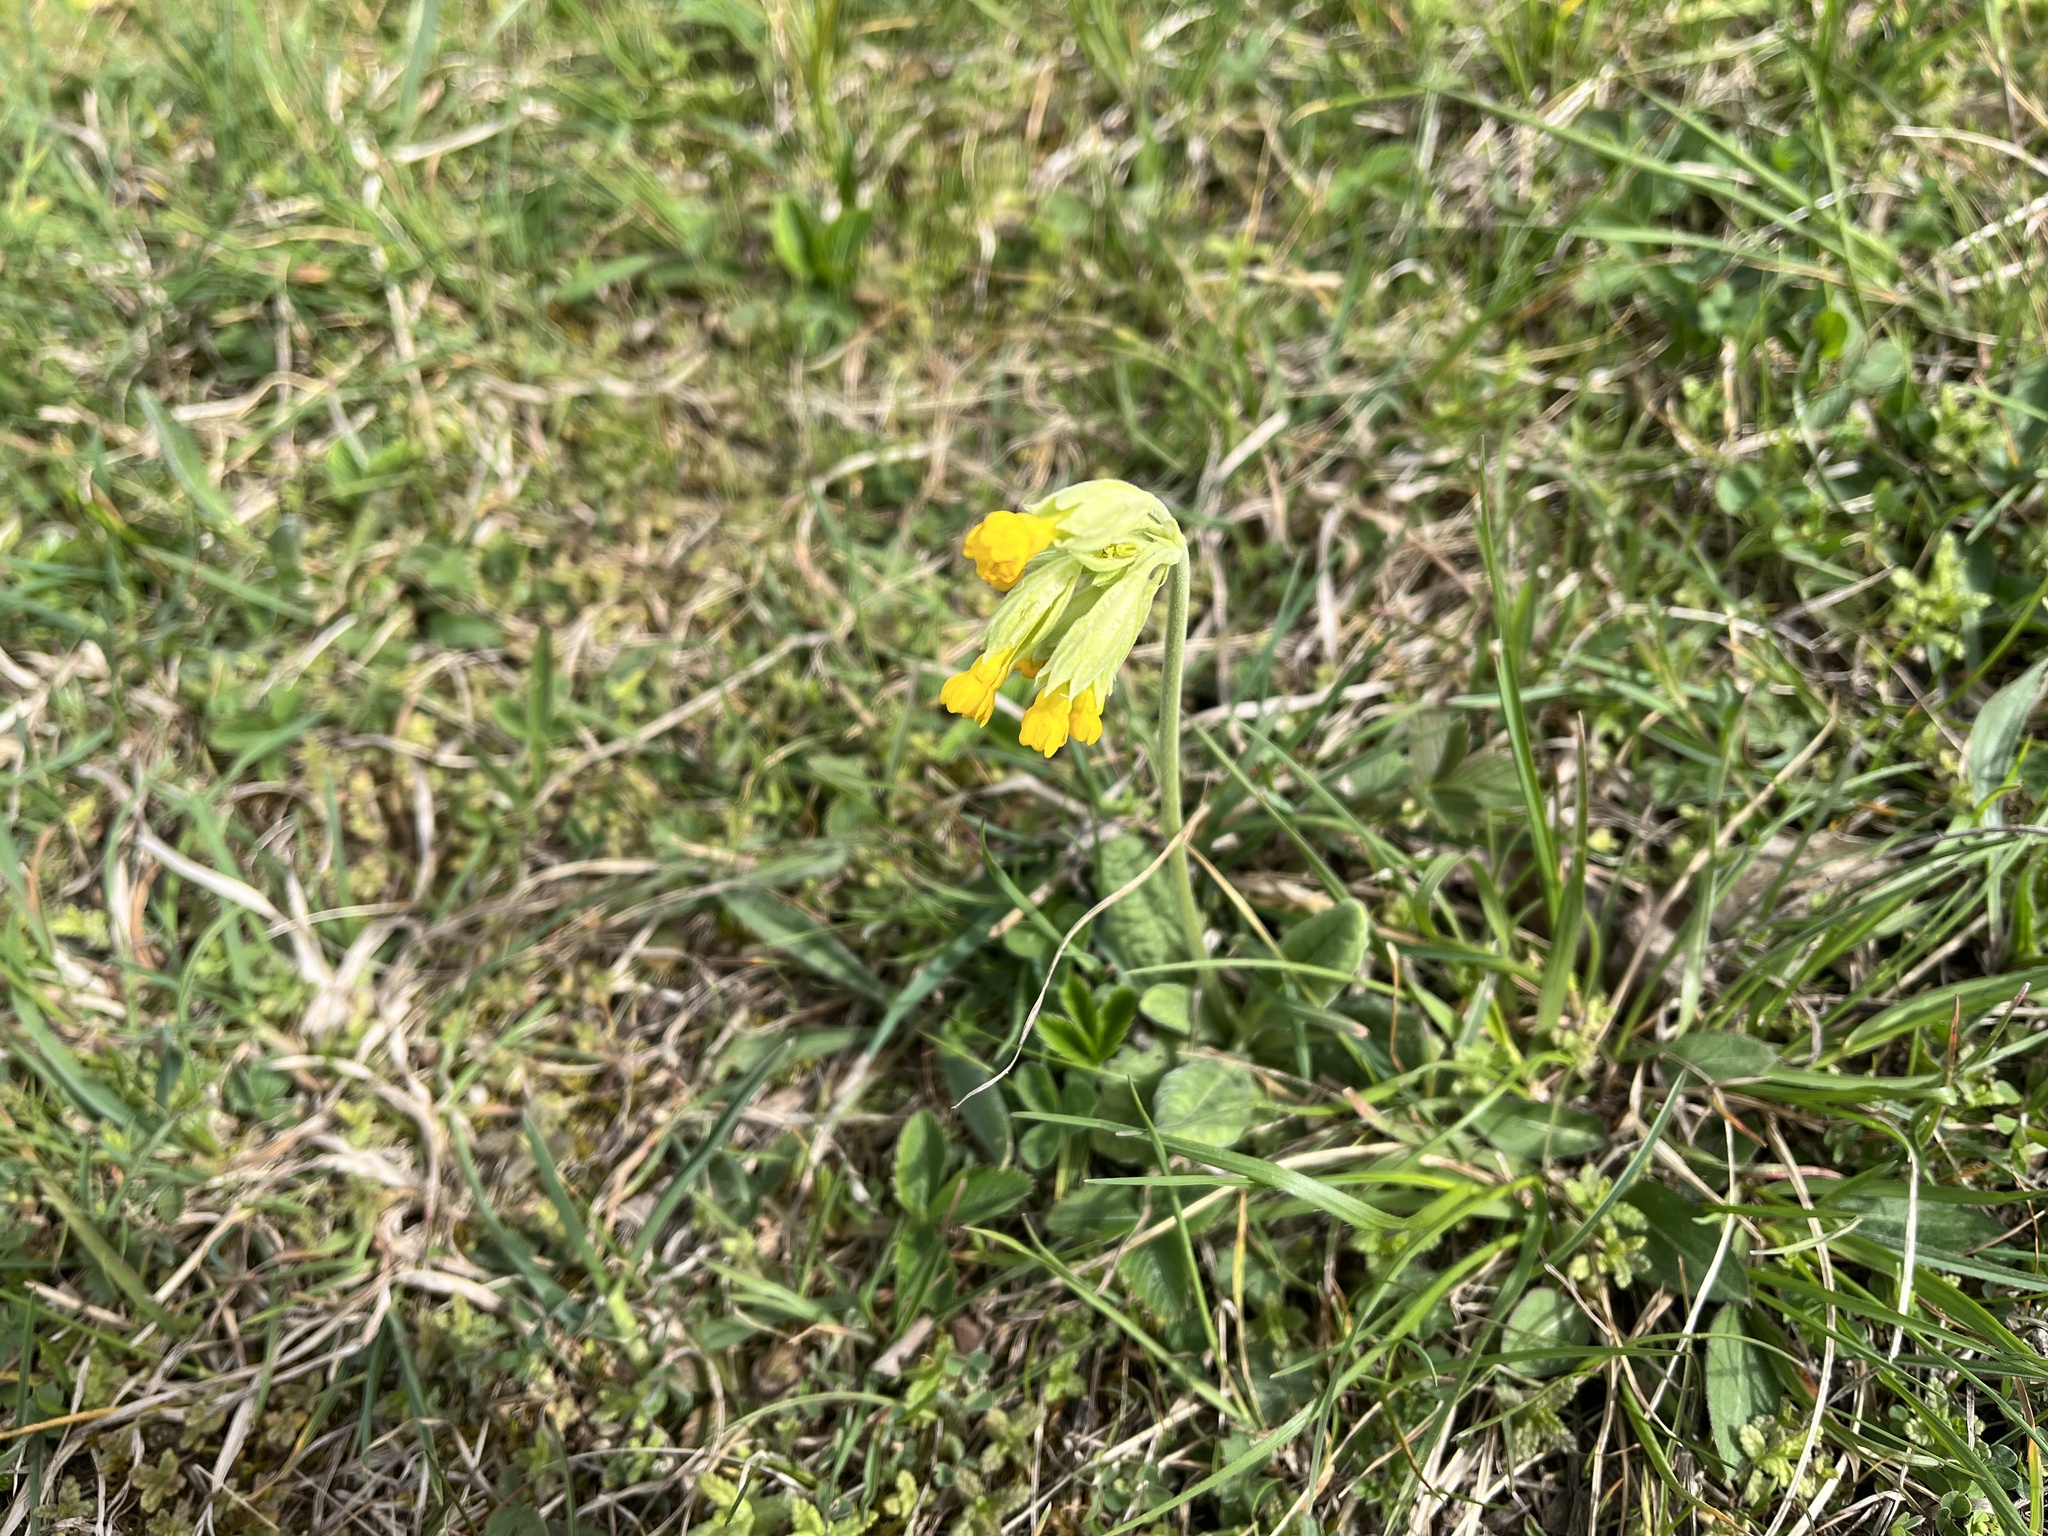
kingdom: Plantae
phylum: Tracheophyta
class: Magnoliopsida
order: Ericales
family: Primulaceae
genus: Primula
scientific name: Primula veris
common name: Cowslip
